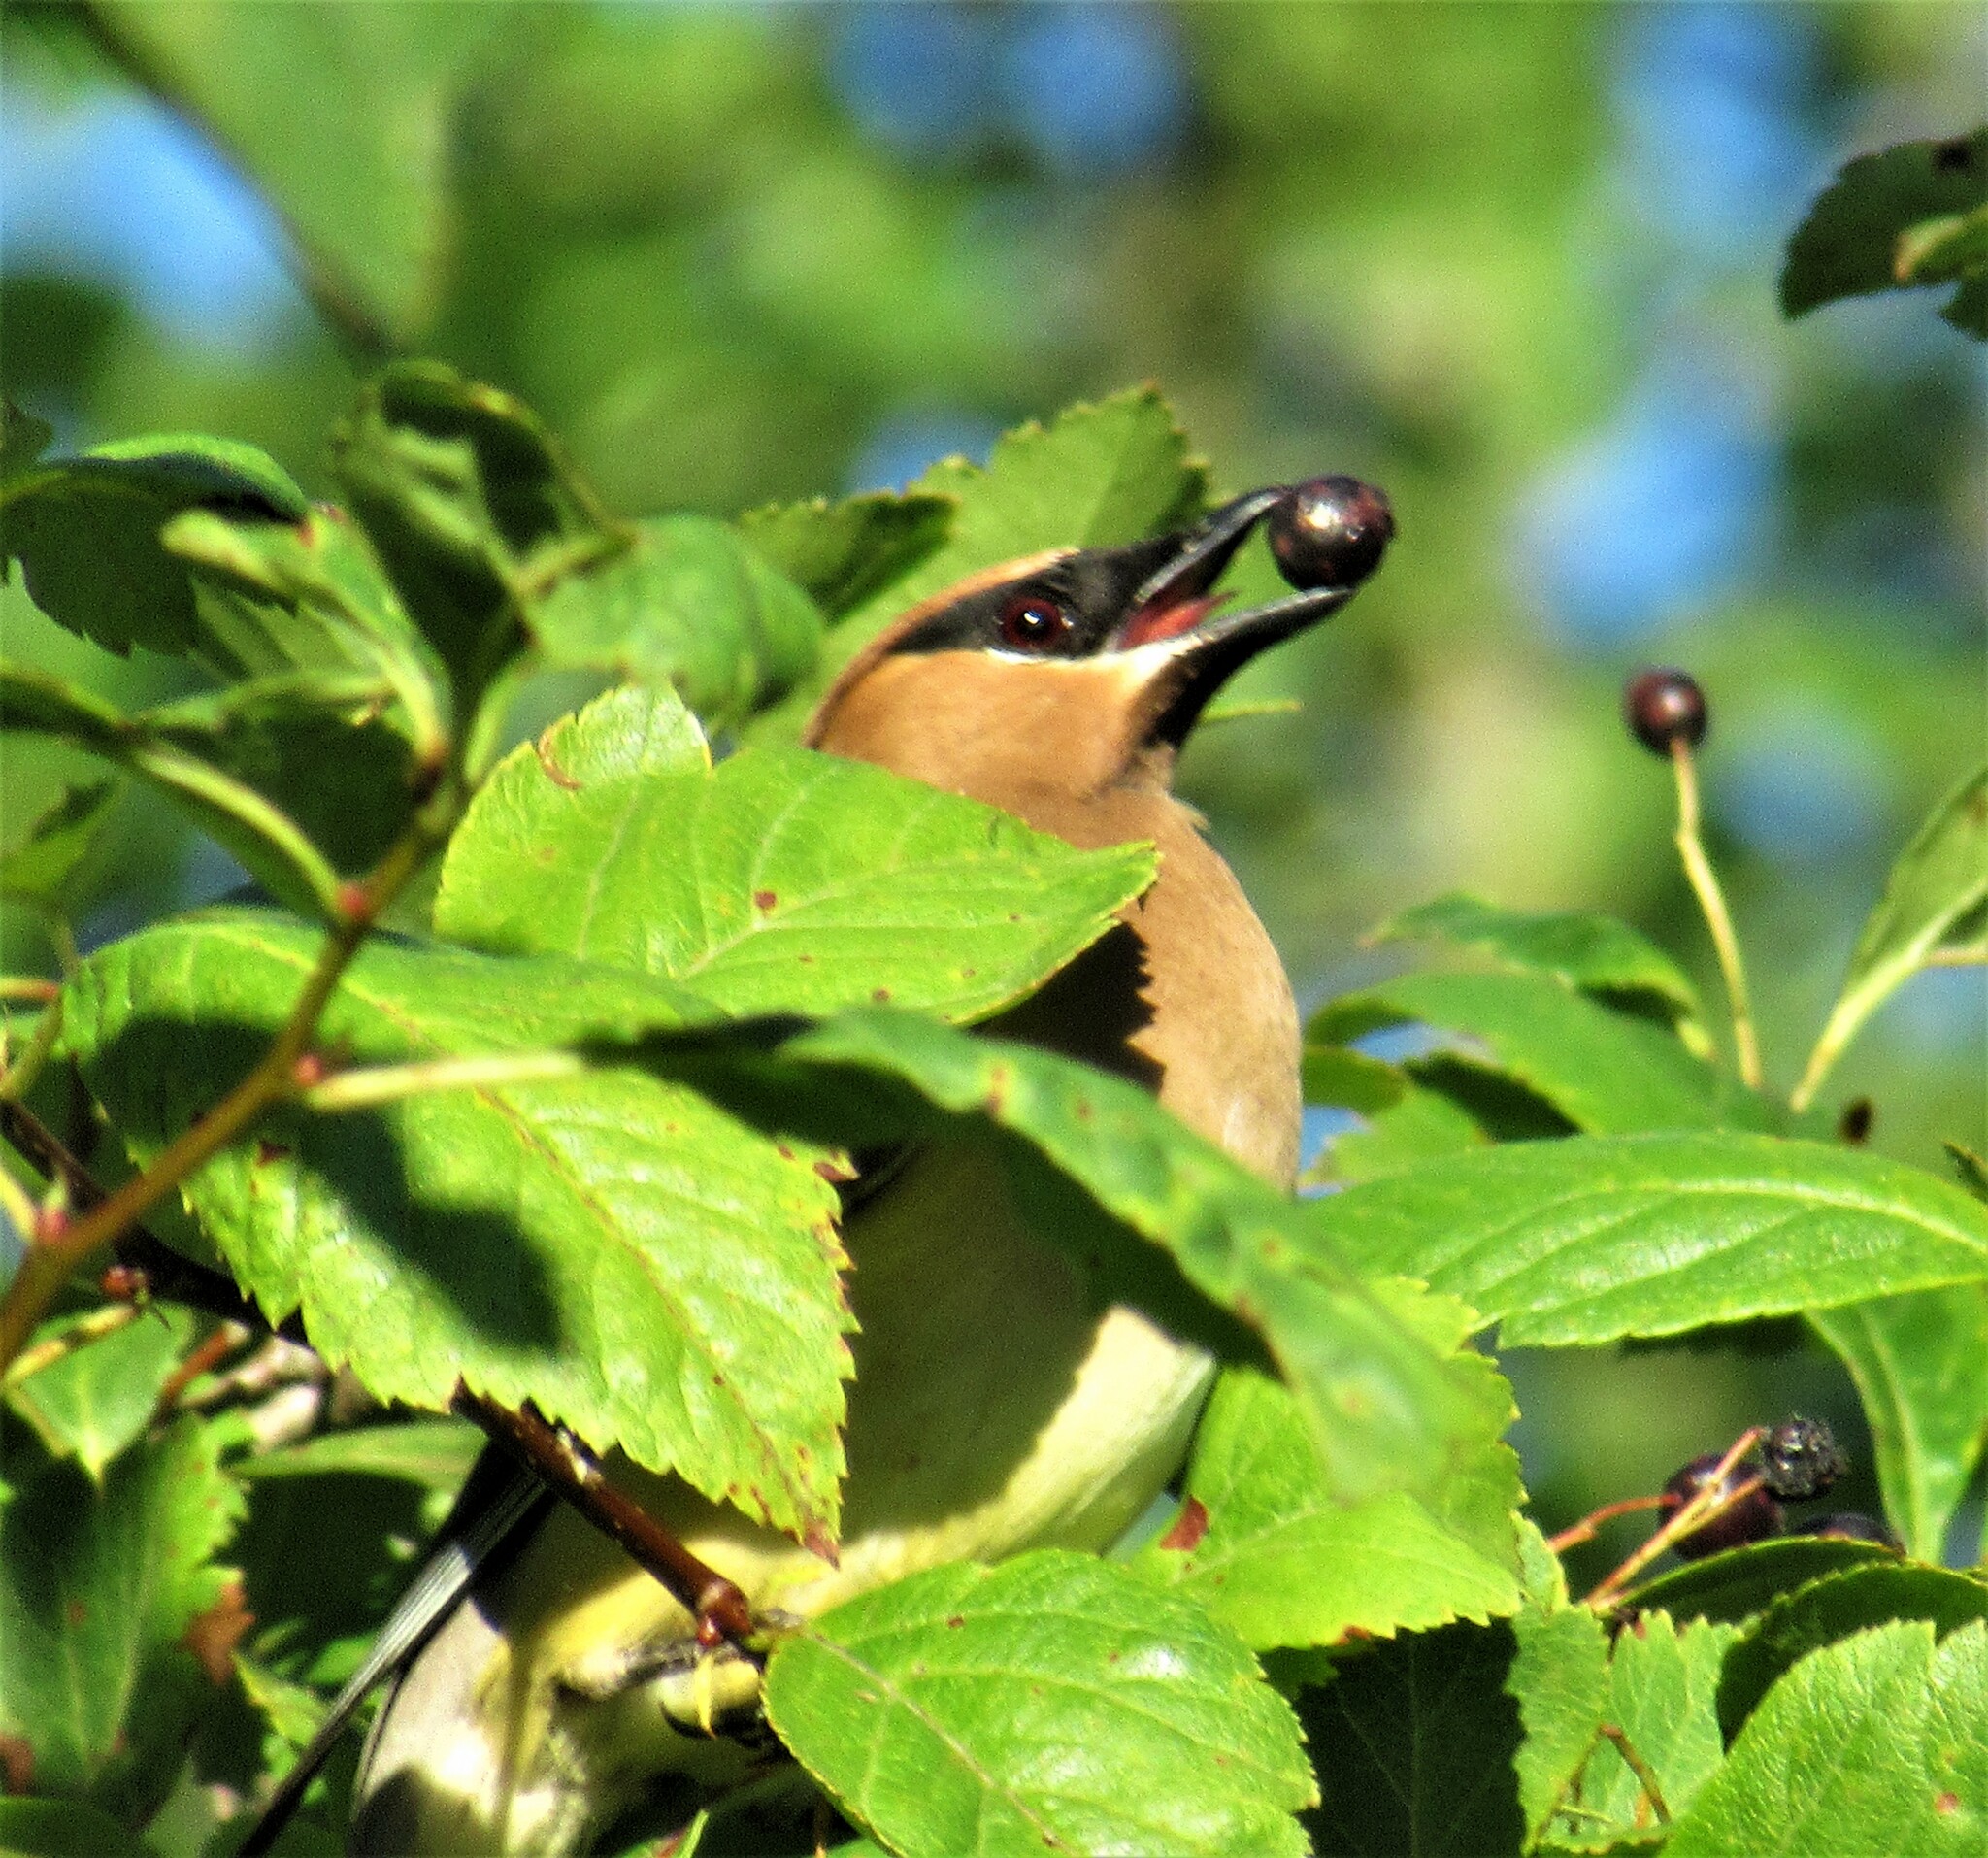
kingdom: Animalia
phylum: Chordata
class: Aves
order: Passeriformes
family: Bombycillidae
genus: Bombycilla
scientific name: Bombycilla cedrorum
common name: Cedar waxwing
